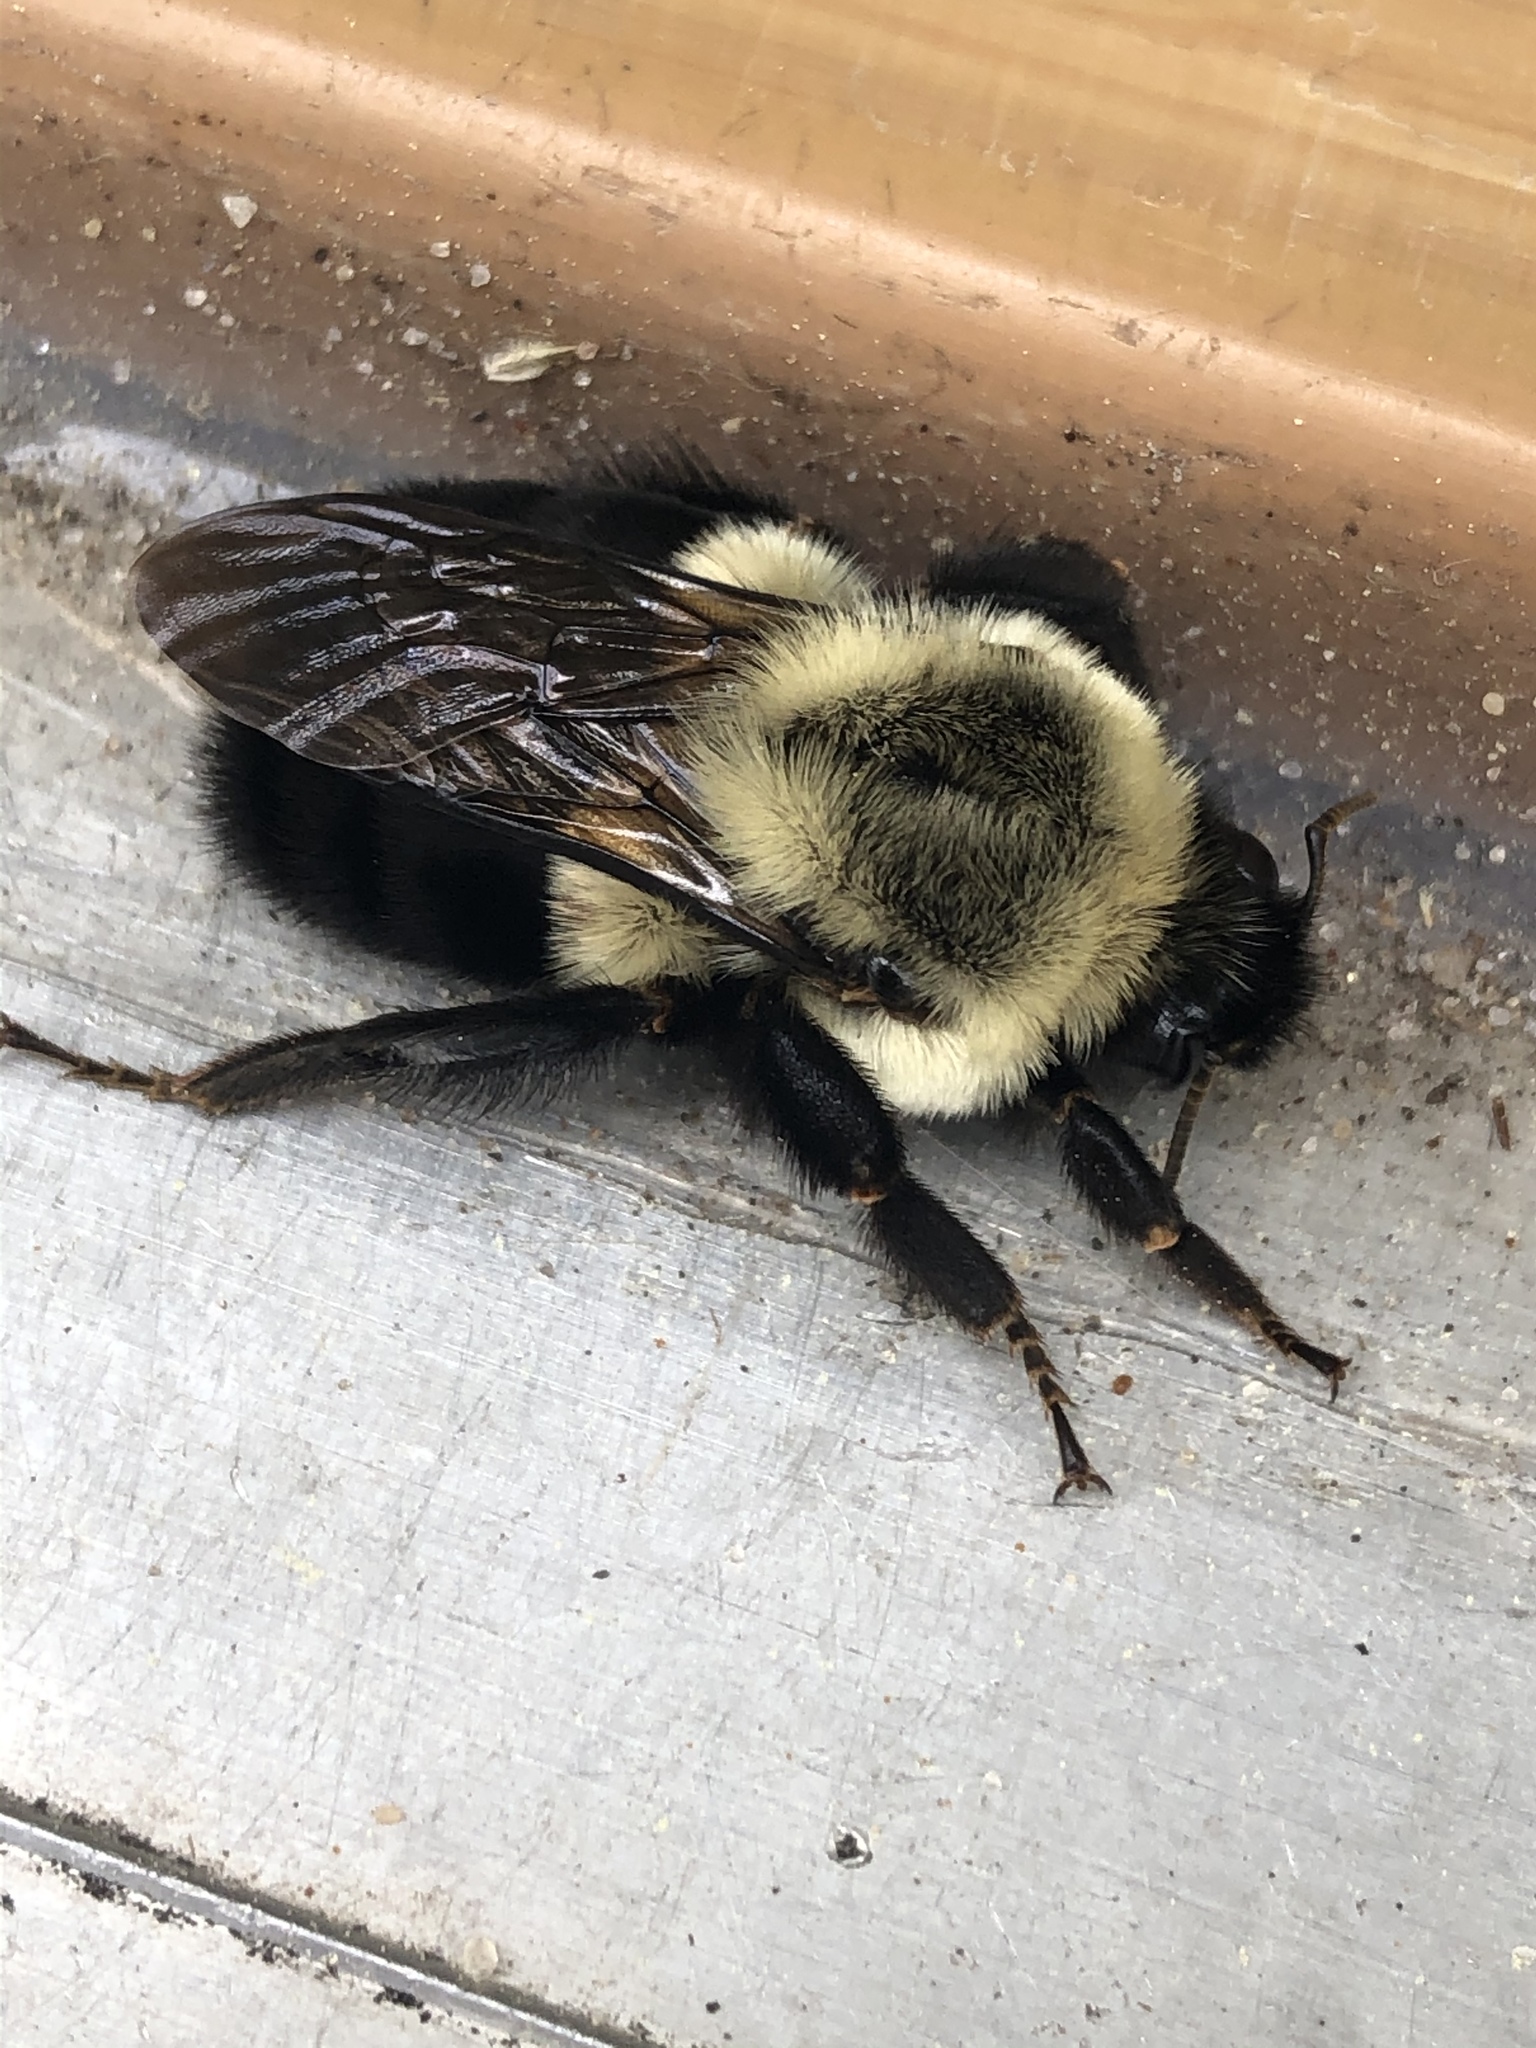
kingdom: Animalia
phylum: Arthropoda
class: Insecta
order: Hymenoptera
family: Apidae
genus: Bombus
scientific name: Bombus impatiens
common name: Common eastern bumble bee
